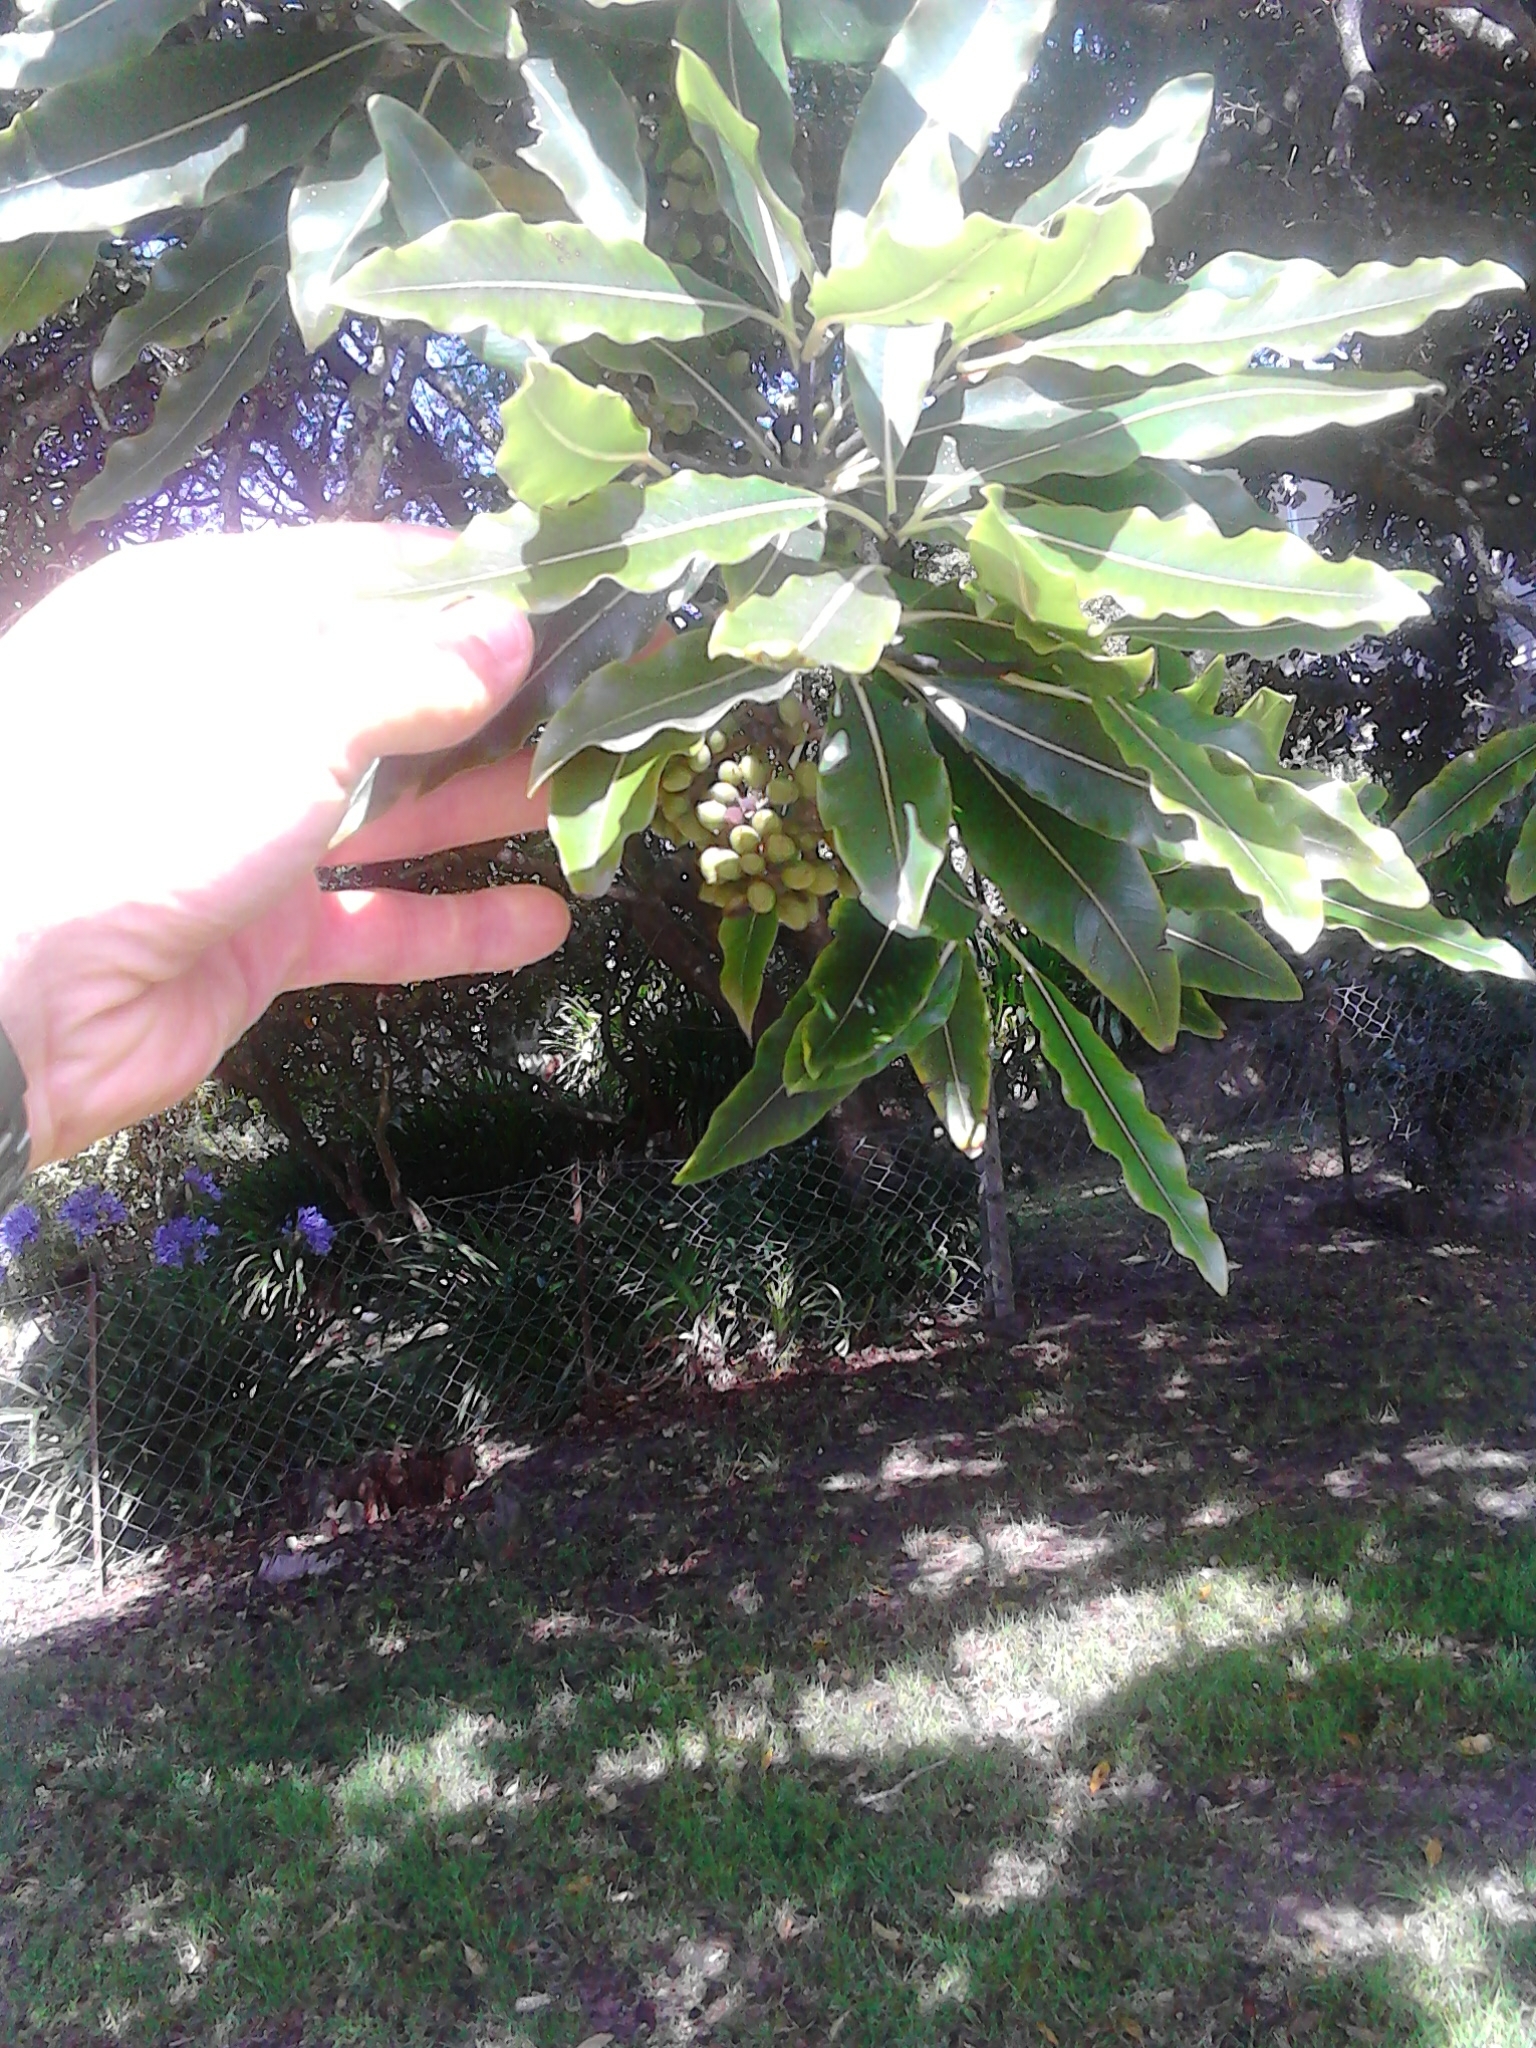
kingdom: Plantae
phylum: Tracheophyta
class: Magnoliopsida
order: Apiales
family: Pittosporaceae
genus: Pittosporum
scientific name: Pittosporum eugenioides
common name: Lemonwood
